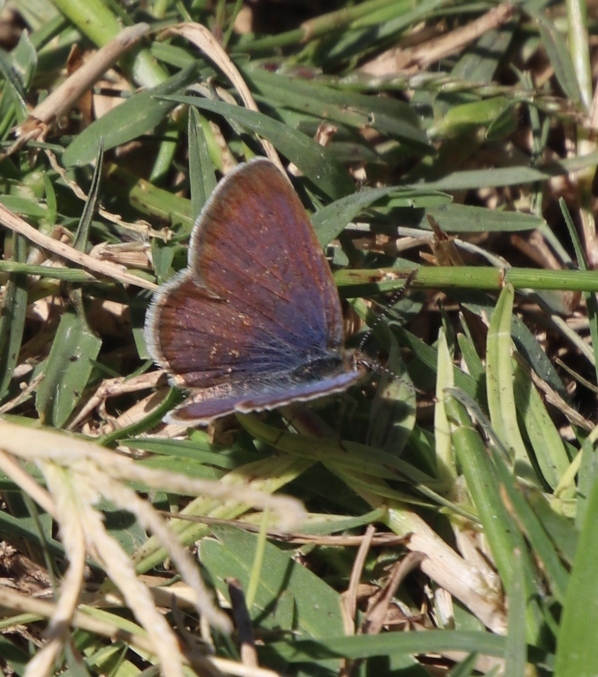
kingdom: Animalia
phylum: Arthropoda
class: Insecta
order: Lepidoptera
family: Lycaenidae
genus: Zizeeria
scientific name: Zizeeria knysna
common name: African grass blue
